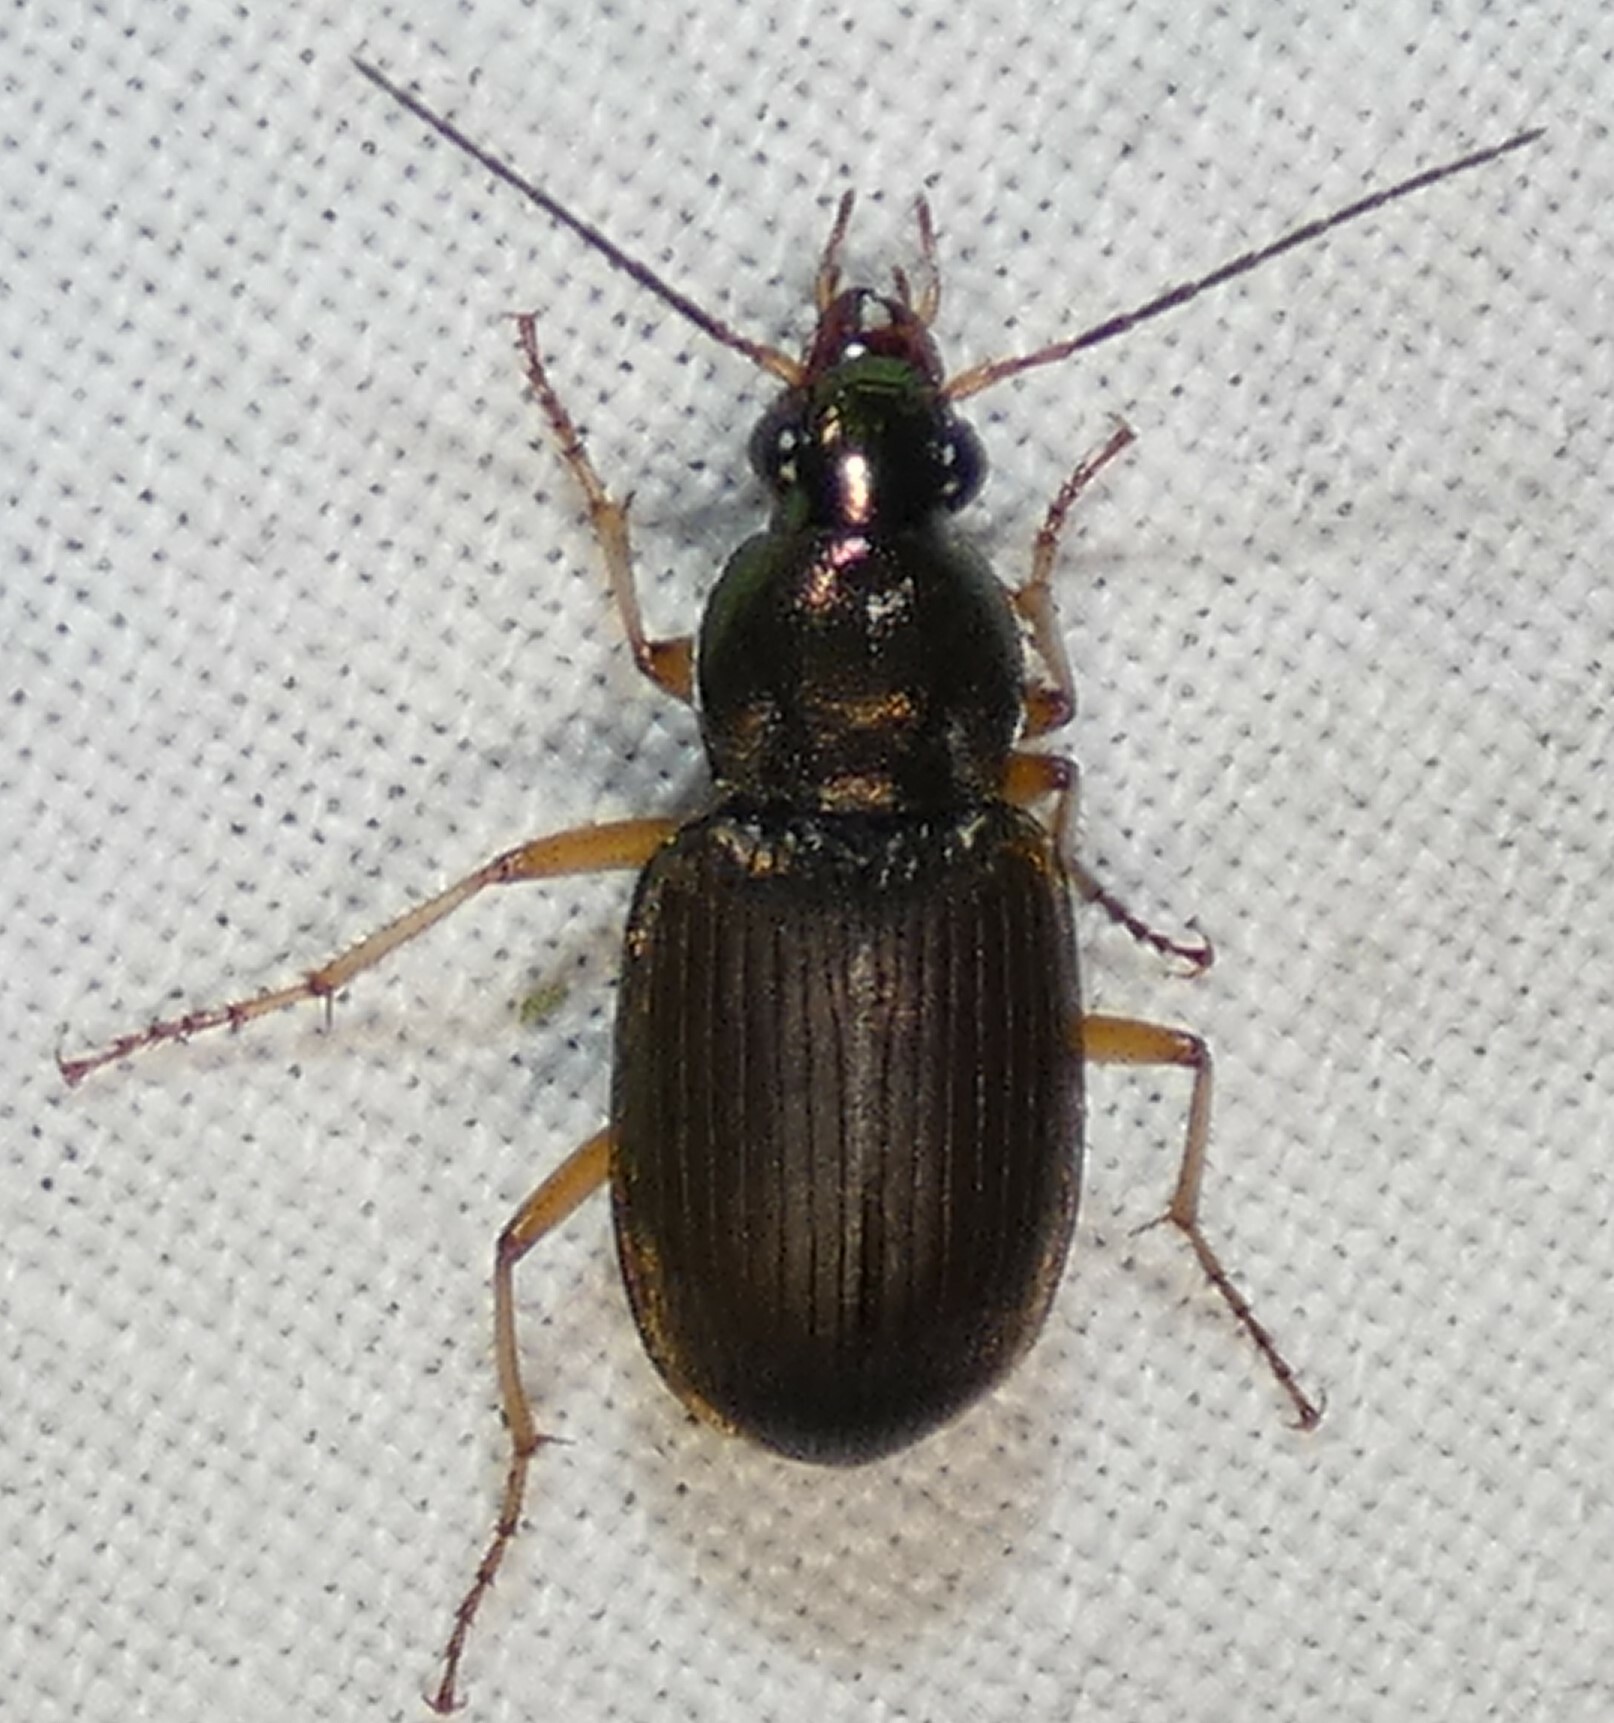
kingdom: Animalia
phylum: Arthropoda
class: Insecta
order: Coleoptera
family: Carabidae
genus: Chlaenius
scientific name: Chlaenius pennsylvanicus
